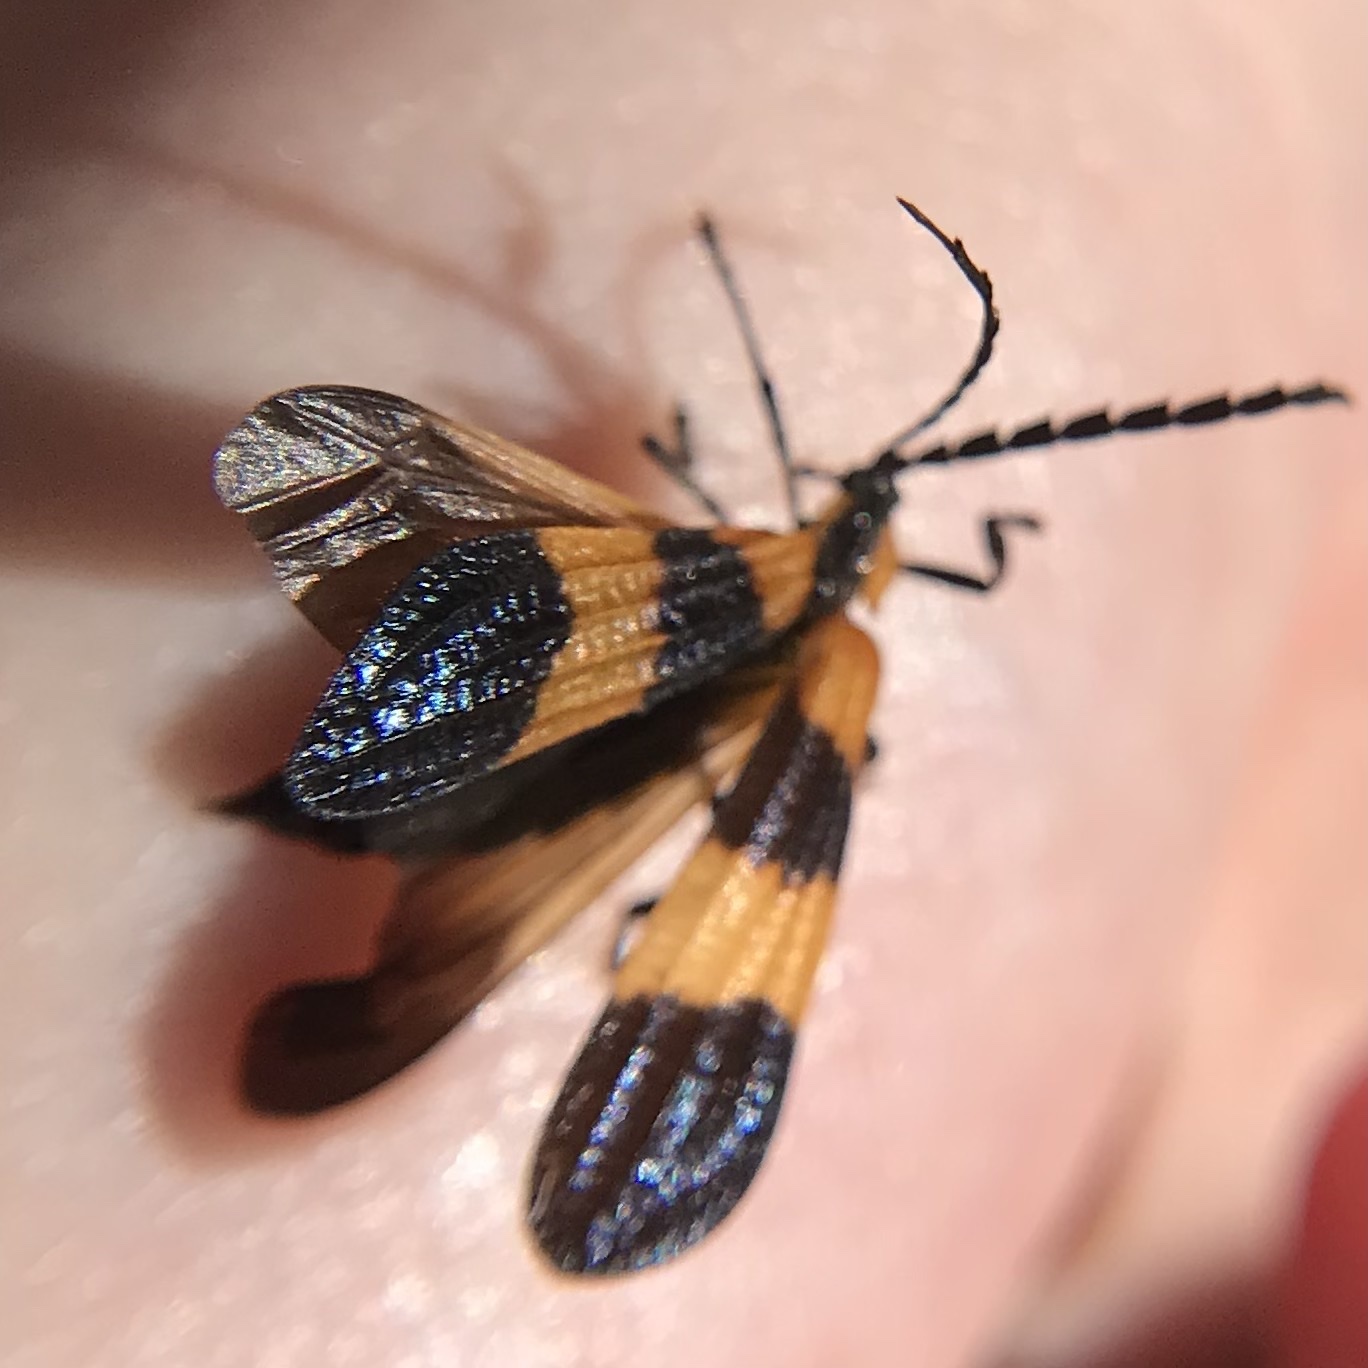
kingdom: Animalia
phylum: Arthropoda
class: Insecta
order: Coleoptera
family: Lycidae
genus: Calopteron
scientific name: Calopteron terminale
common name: End band net-winged beetle
